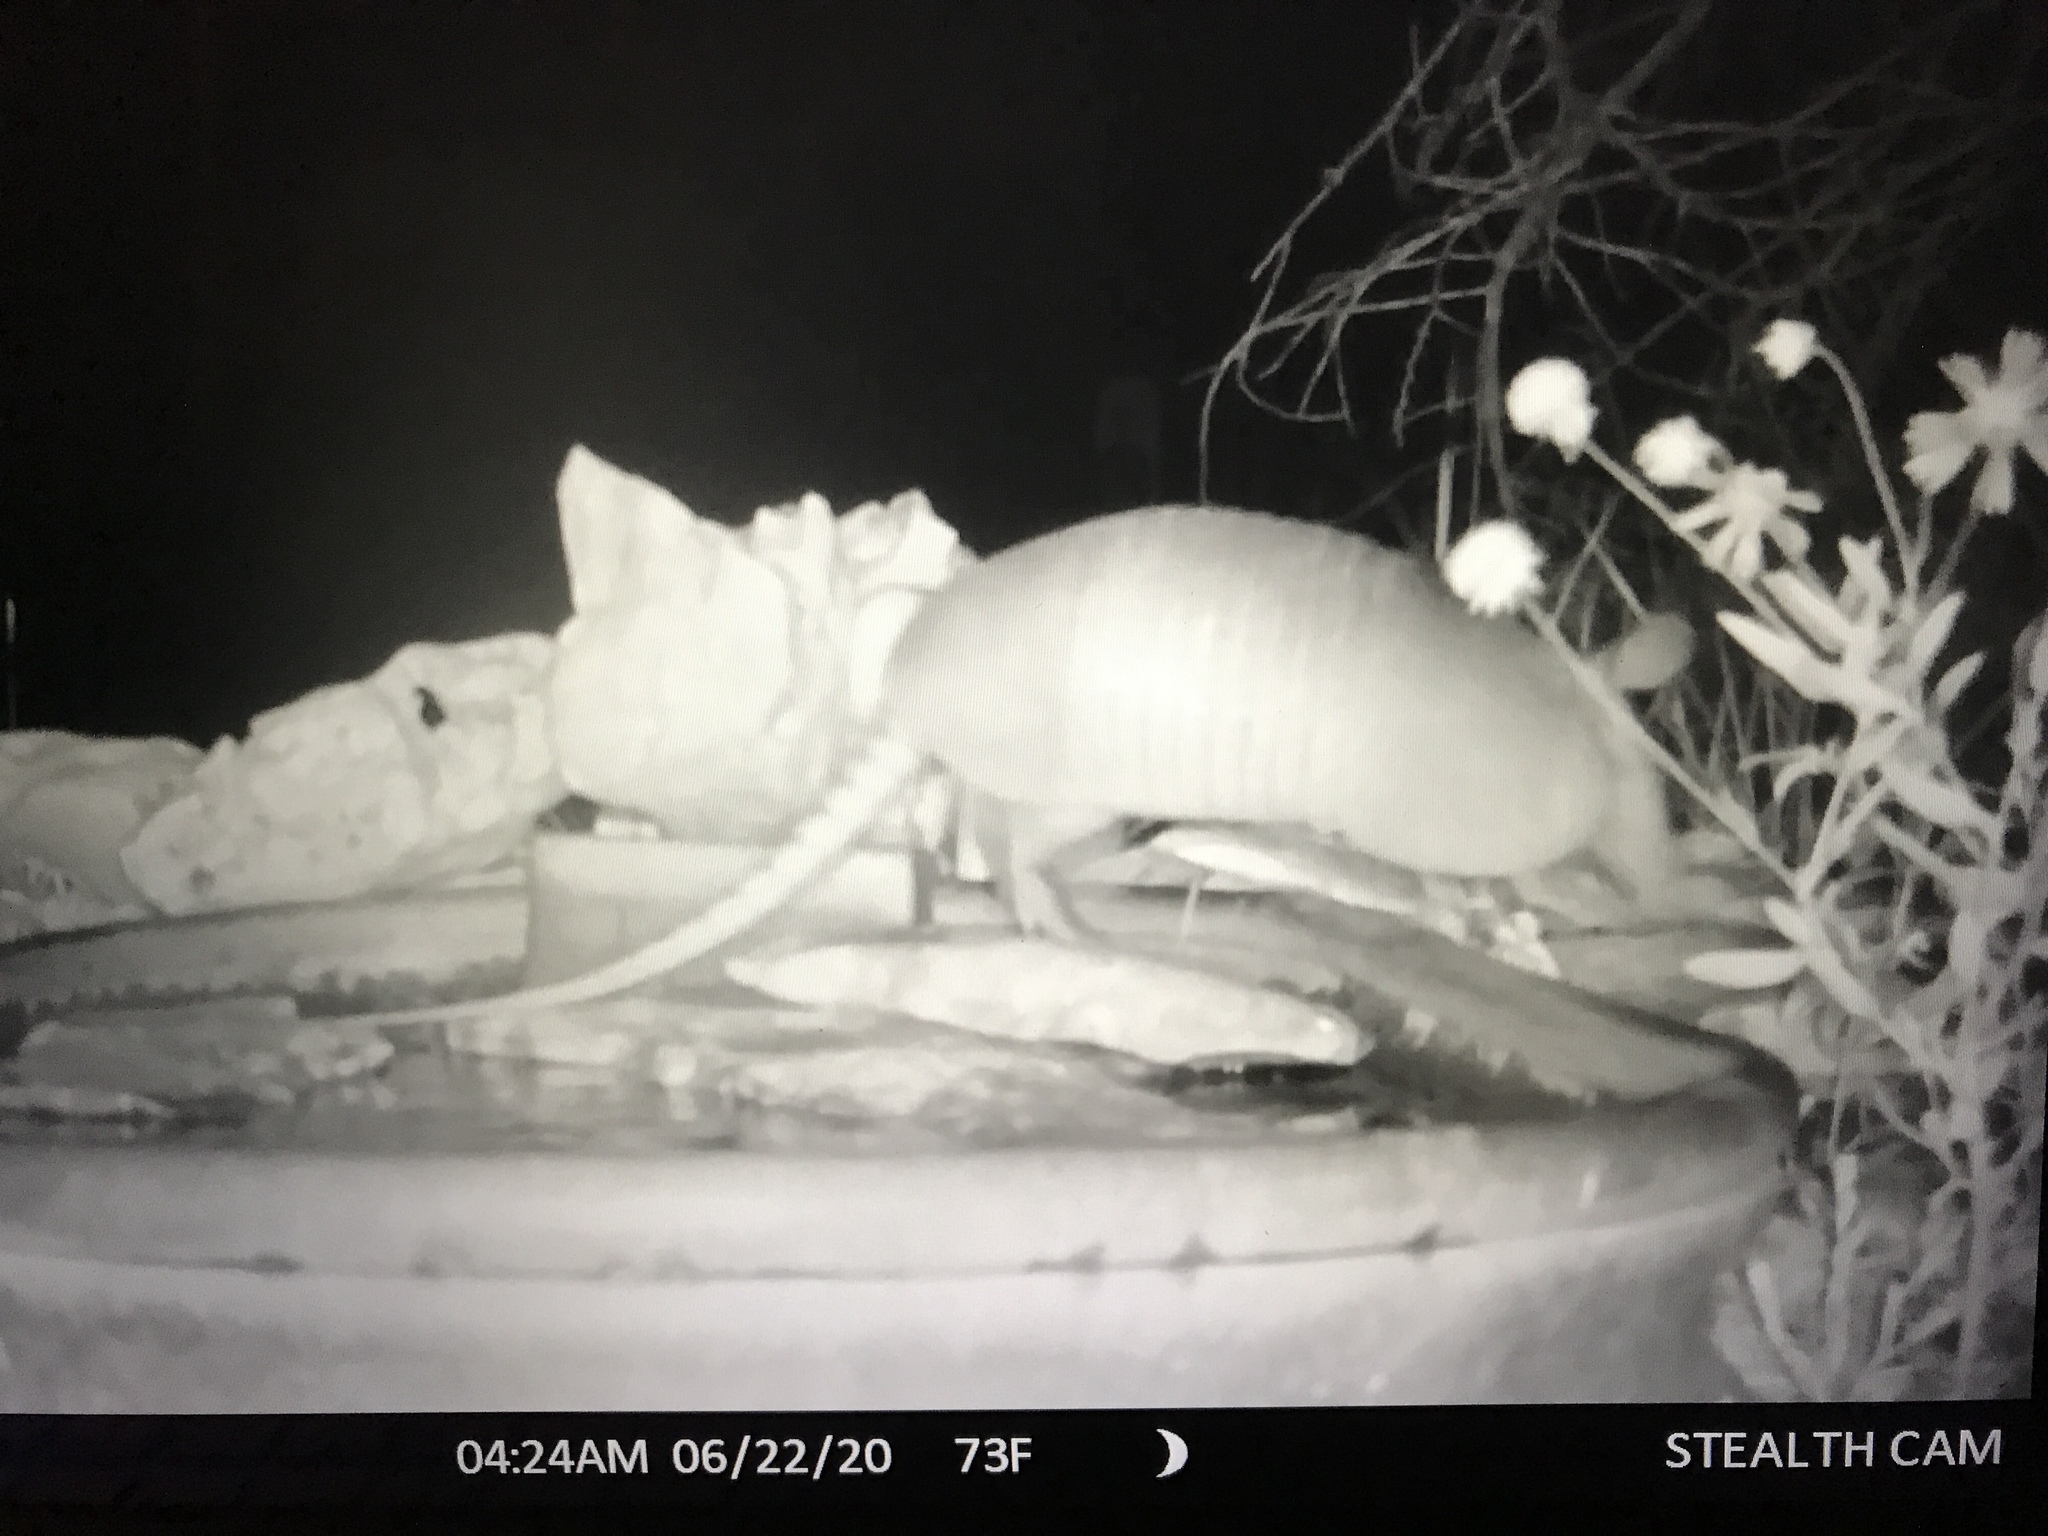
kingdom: Animalia
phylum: Chordata
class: Mammalia
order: Cingulata
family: Dasypodidae
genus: Dasypus
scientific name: Dasypus novemcinctus
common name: Nine-banded armadillo
